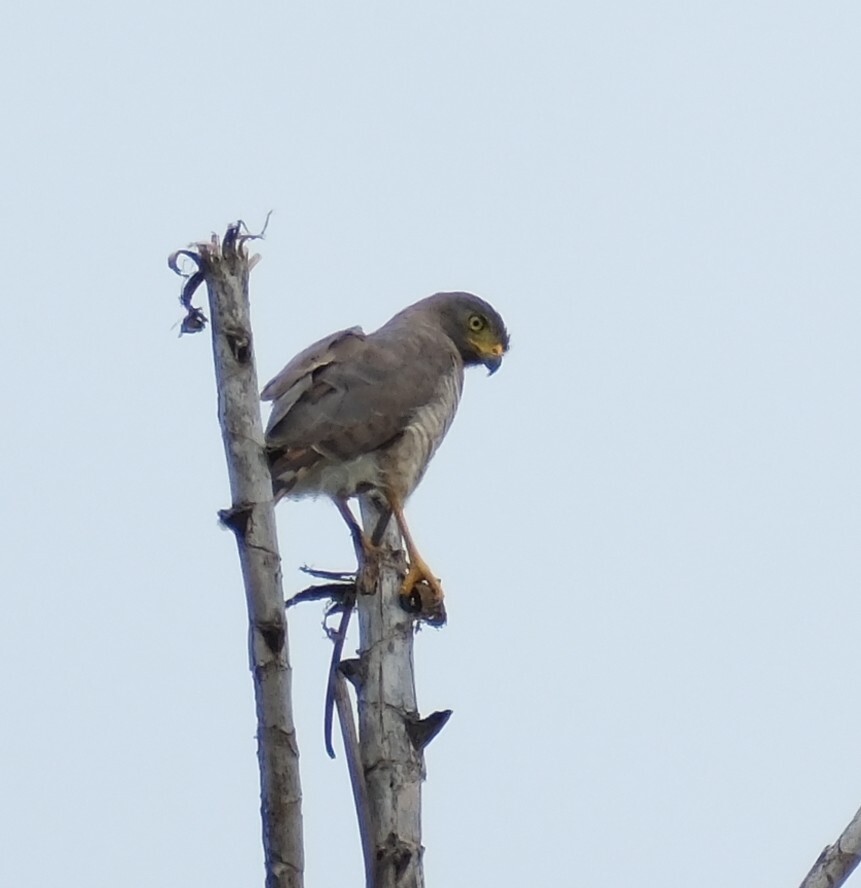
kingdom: Animalia
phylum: Chordata
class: Aves
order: Accipitriformes
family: Accipitridae
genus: Rupornis
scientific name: Rupornis magnirostris
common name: Roadside hawk
